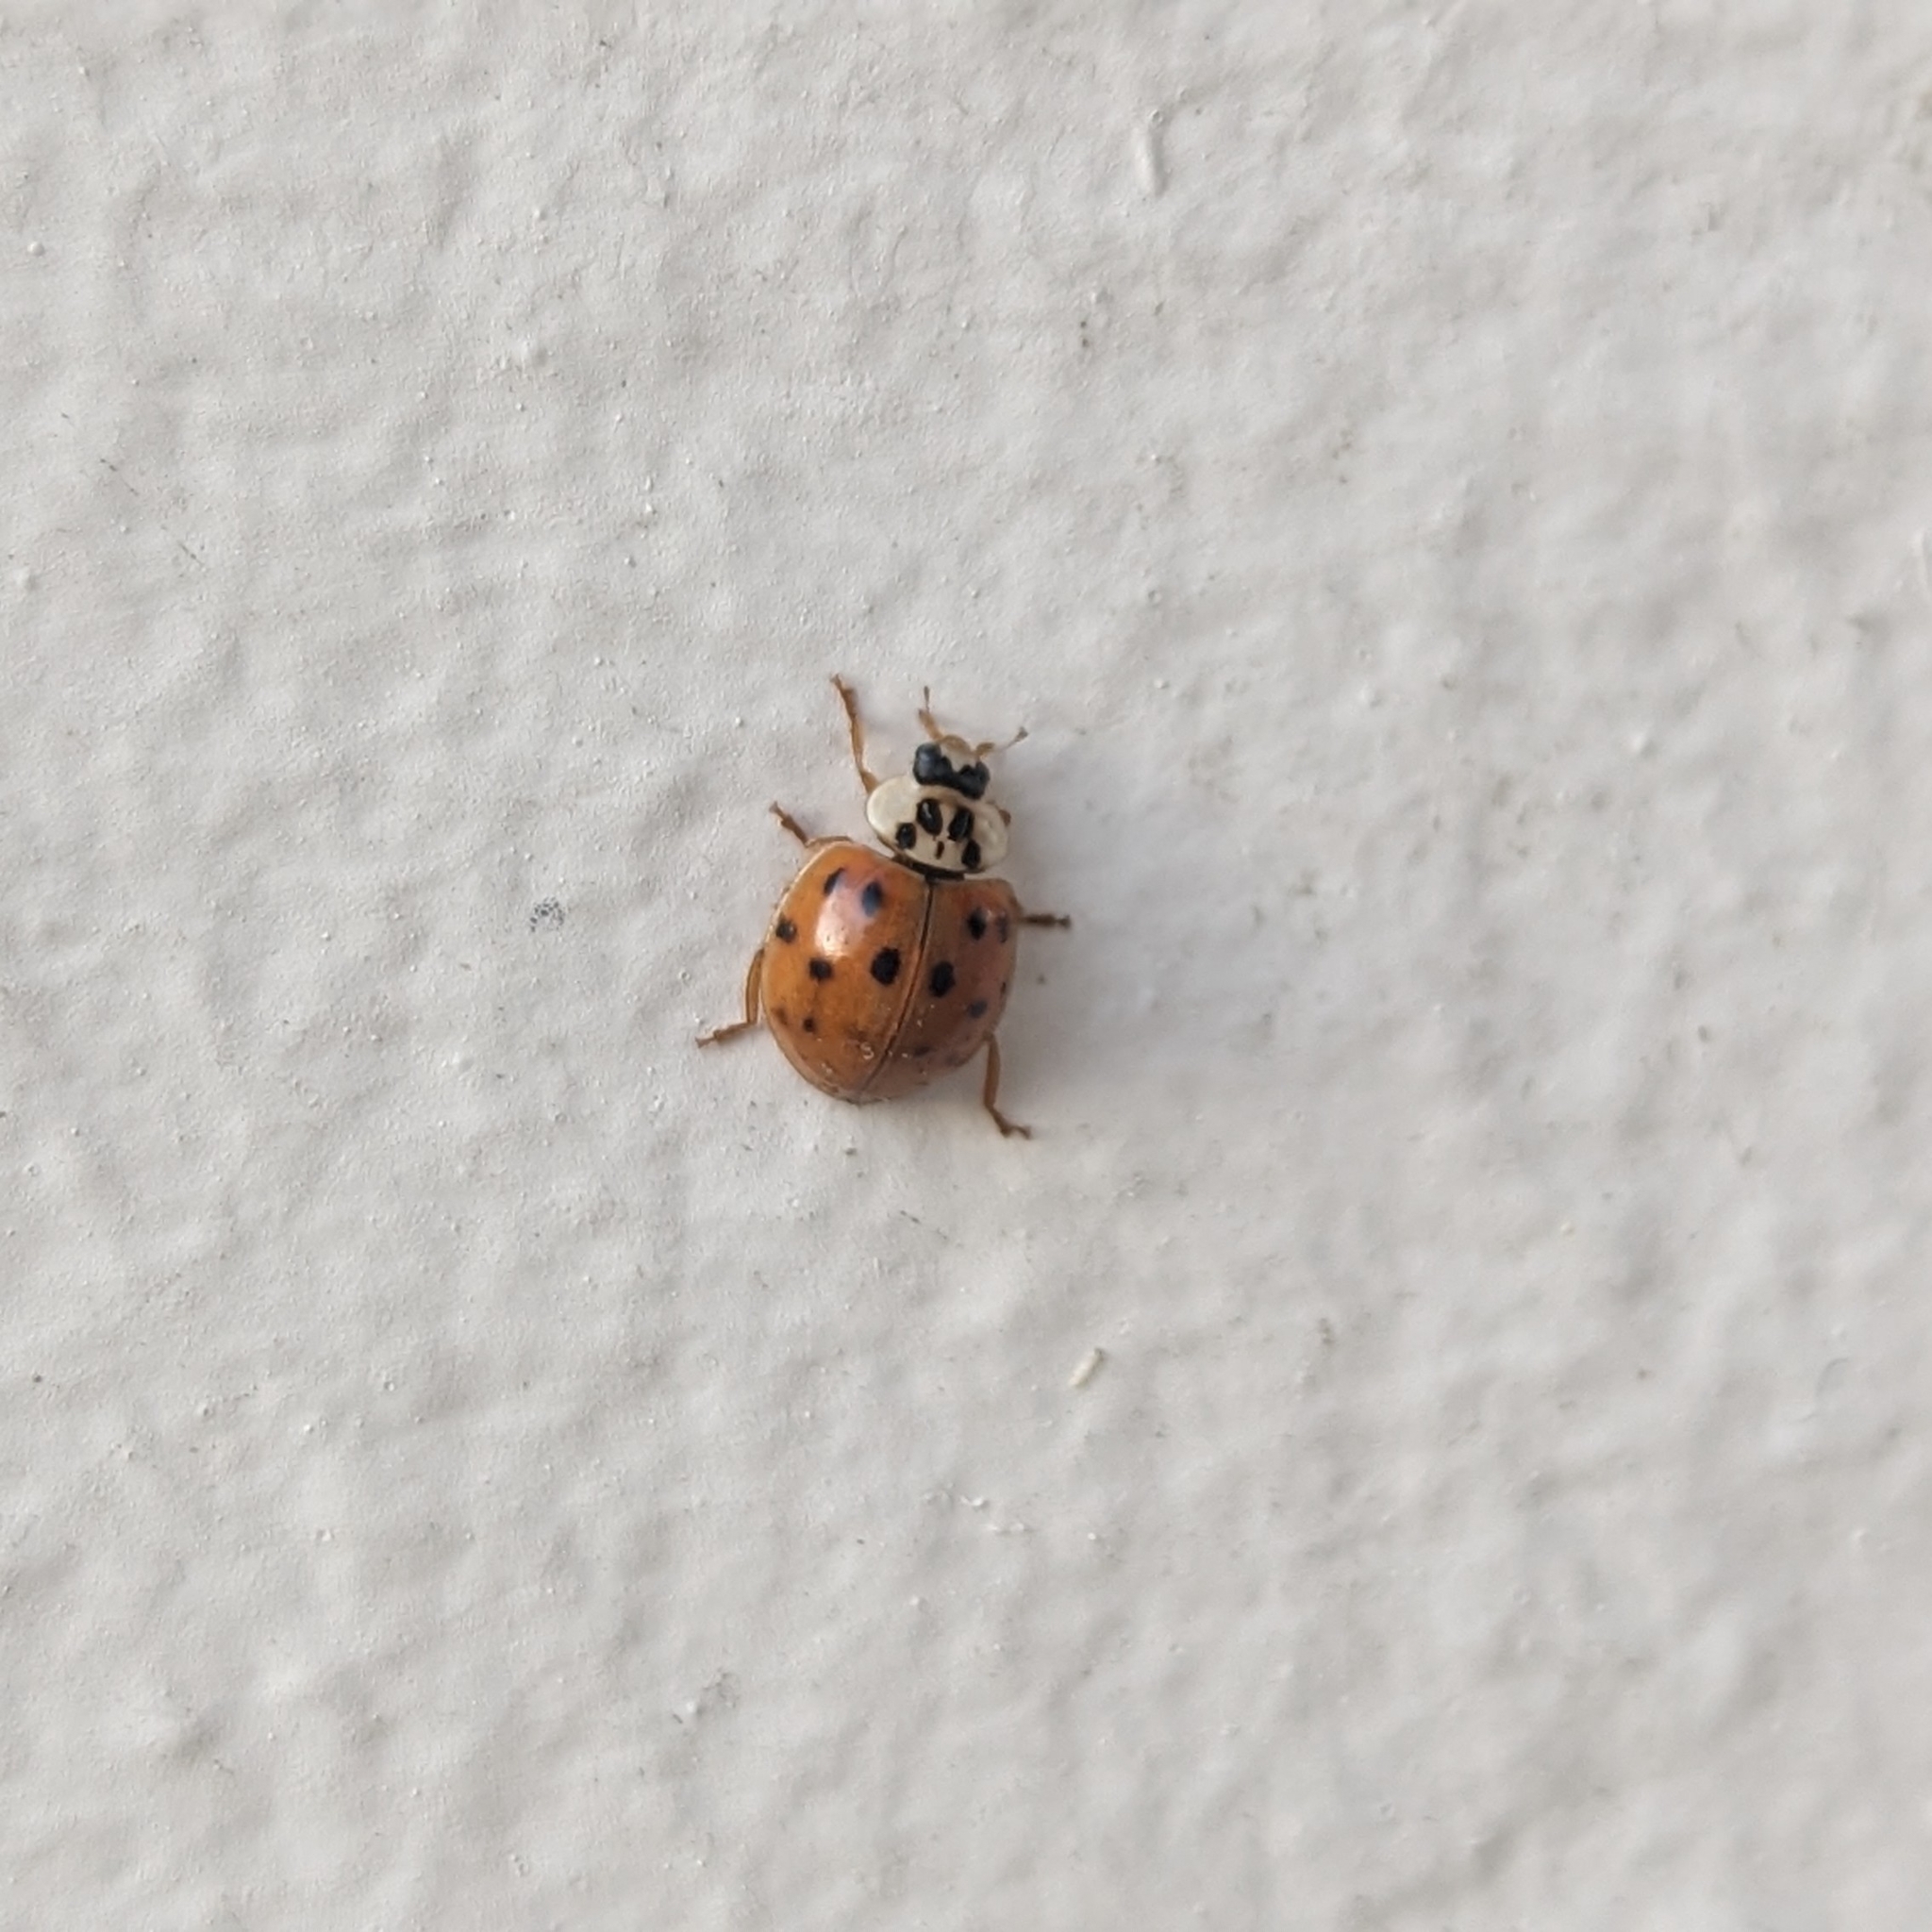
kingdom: Animalia
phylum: Arthropoda
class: Insecta
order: Coleoptera
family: Coccinellidae
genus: Harmonia
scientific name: Harmonia axyridis
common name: Harlequin ladybird
